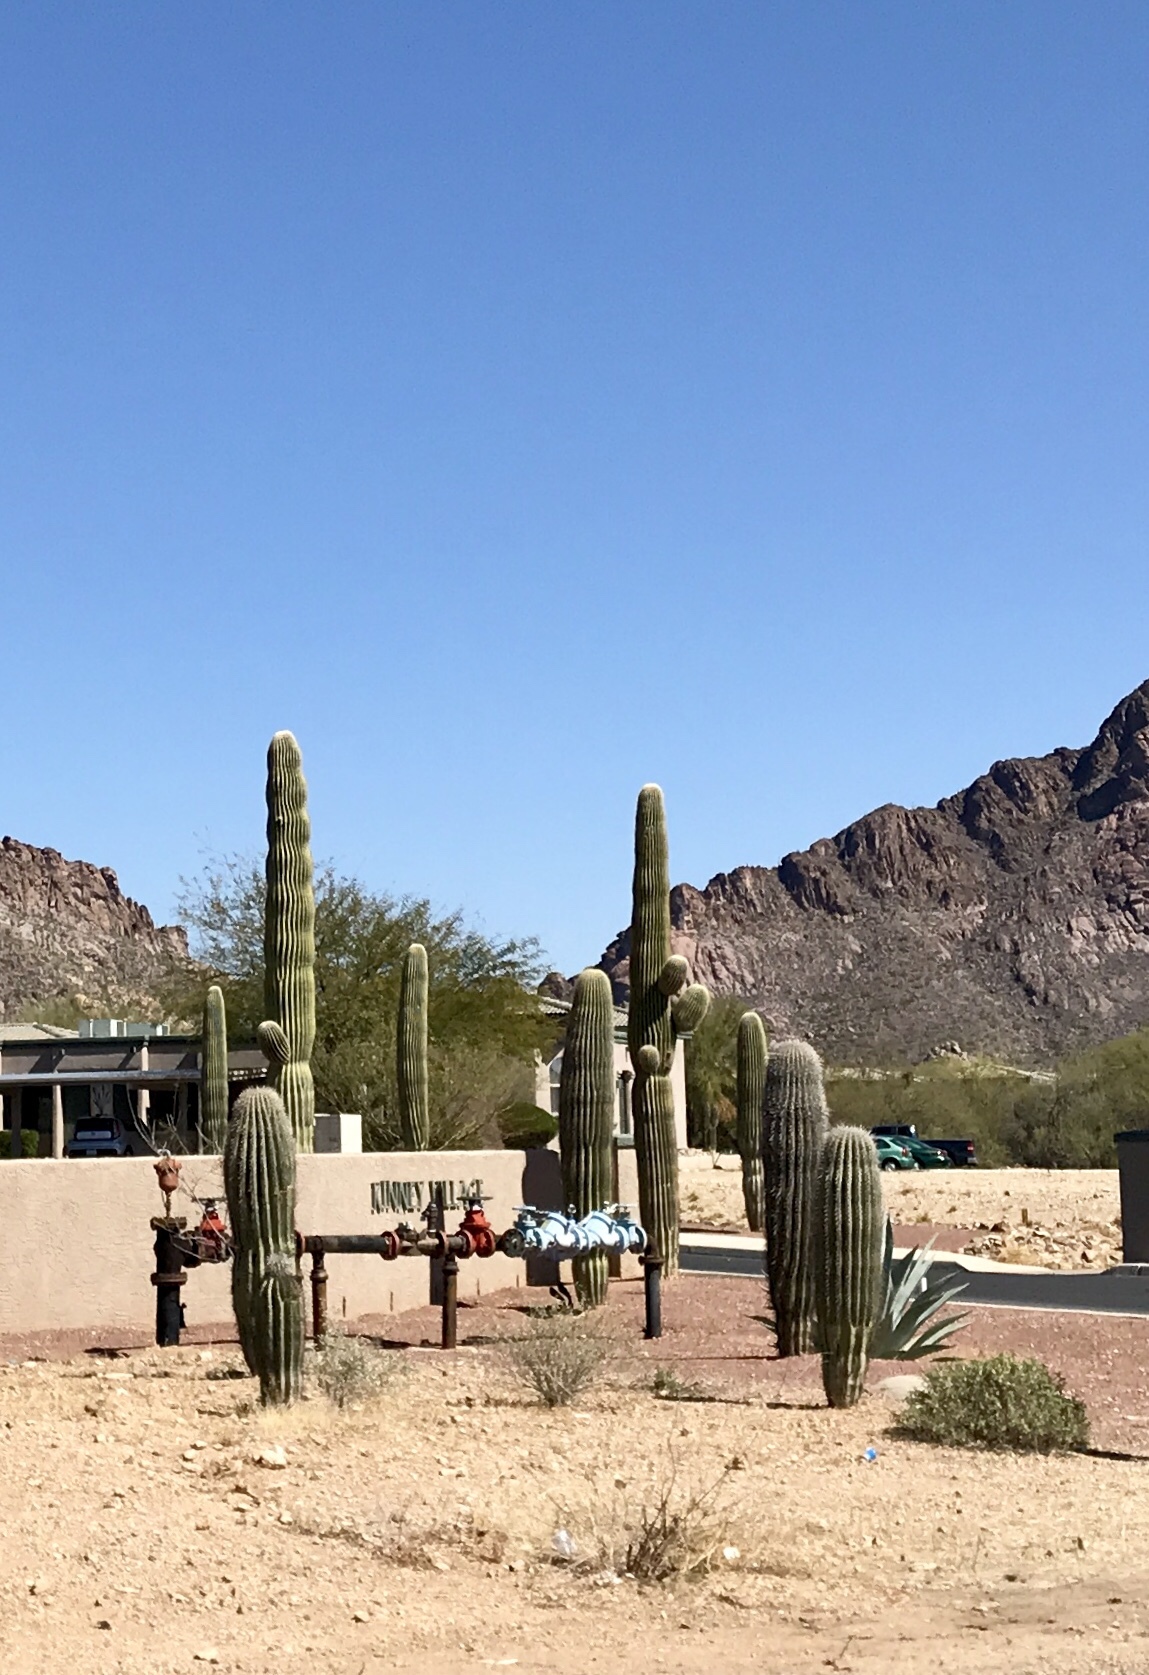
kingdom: Plantae
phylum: Tracheophyta
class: Magnoliopsida
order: Caryophyllales
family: Cactaceae
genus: Carnegiea
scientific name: Carnegiea gigantea
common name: Saguaro
